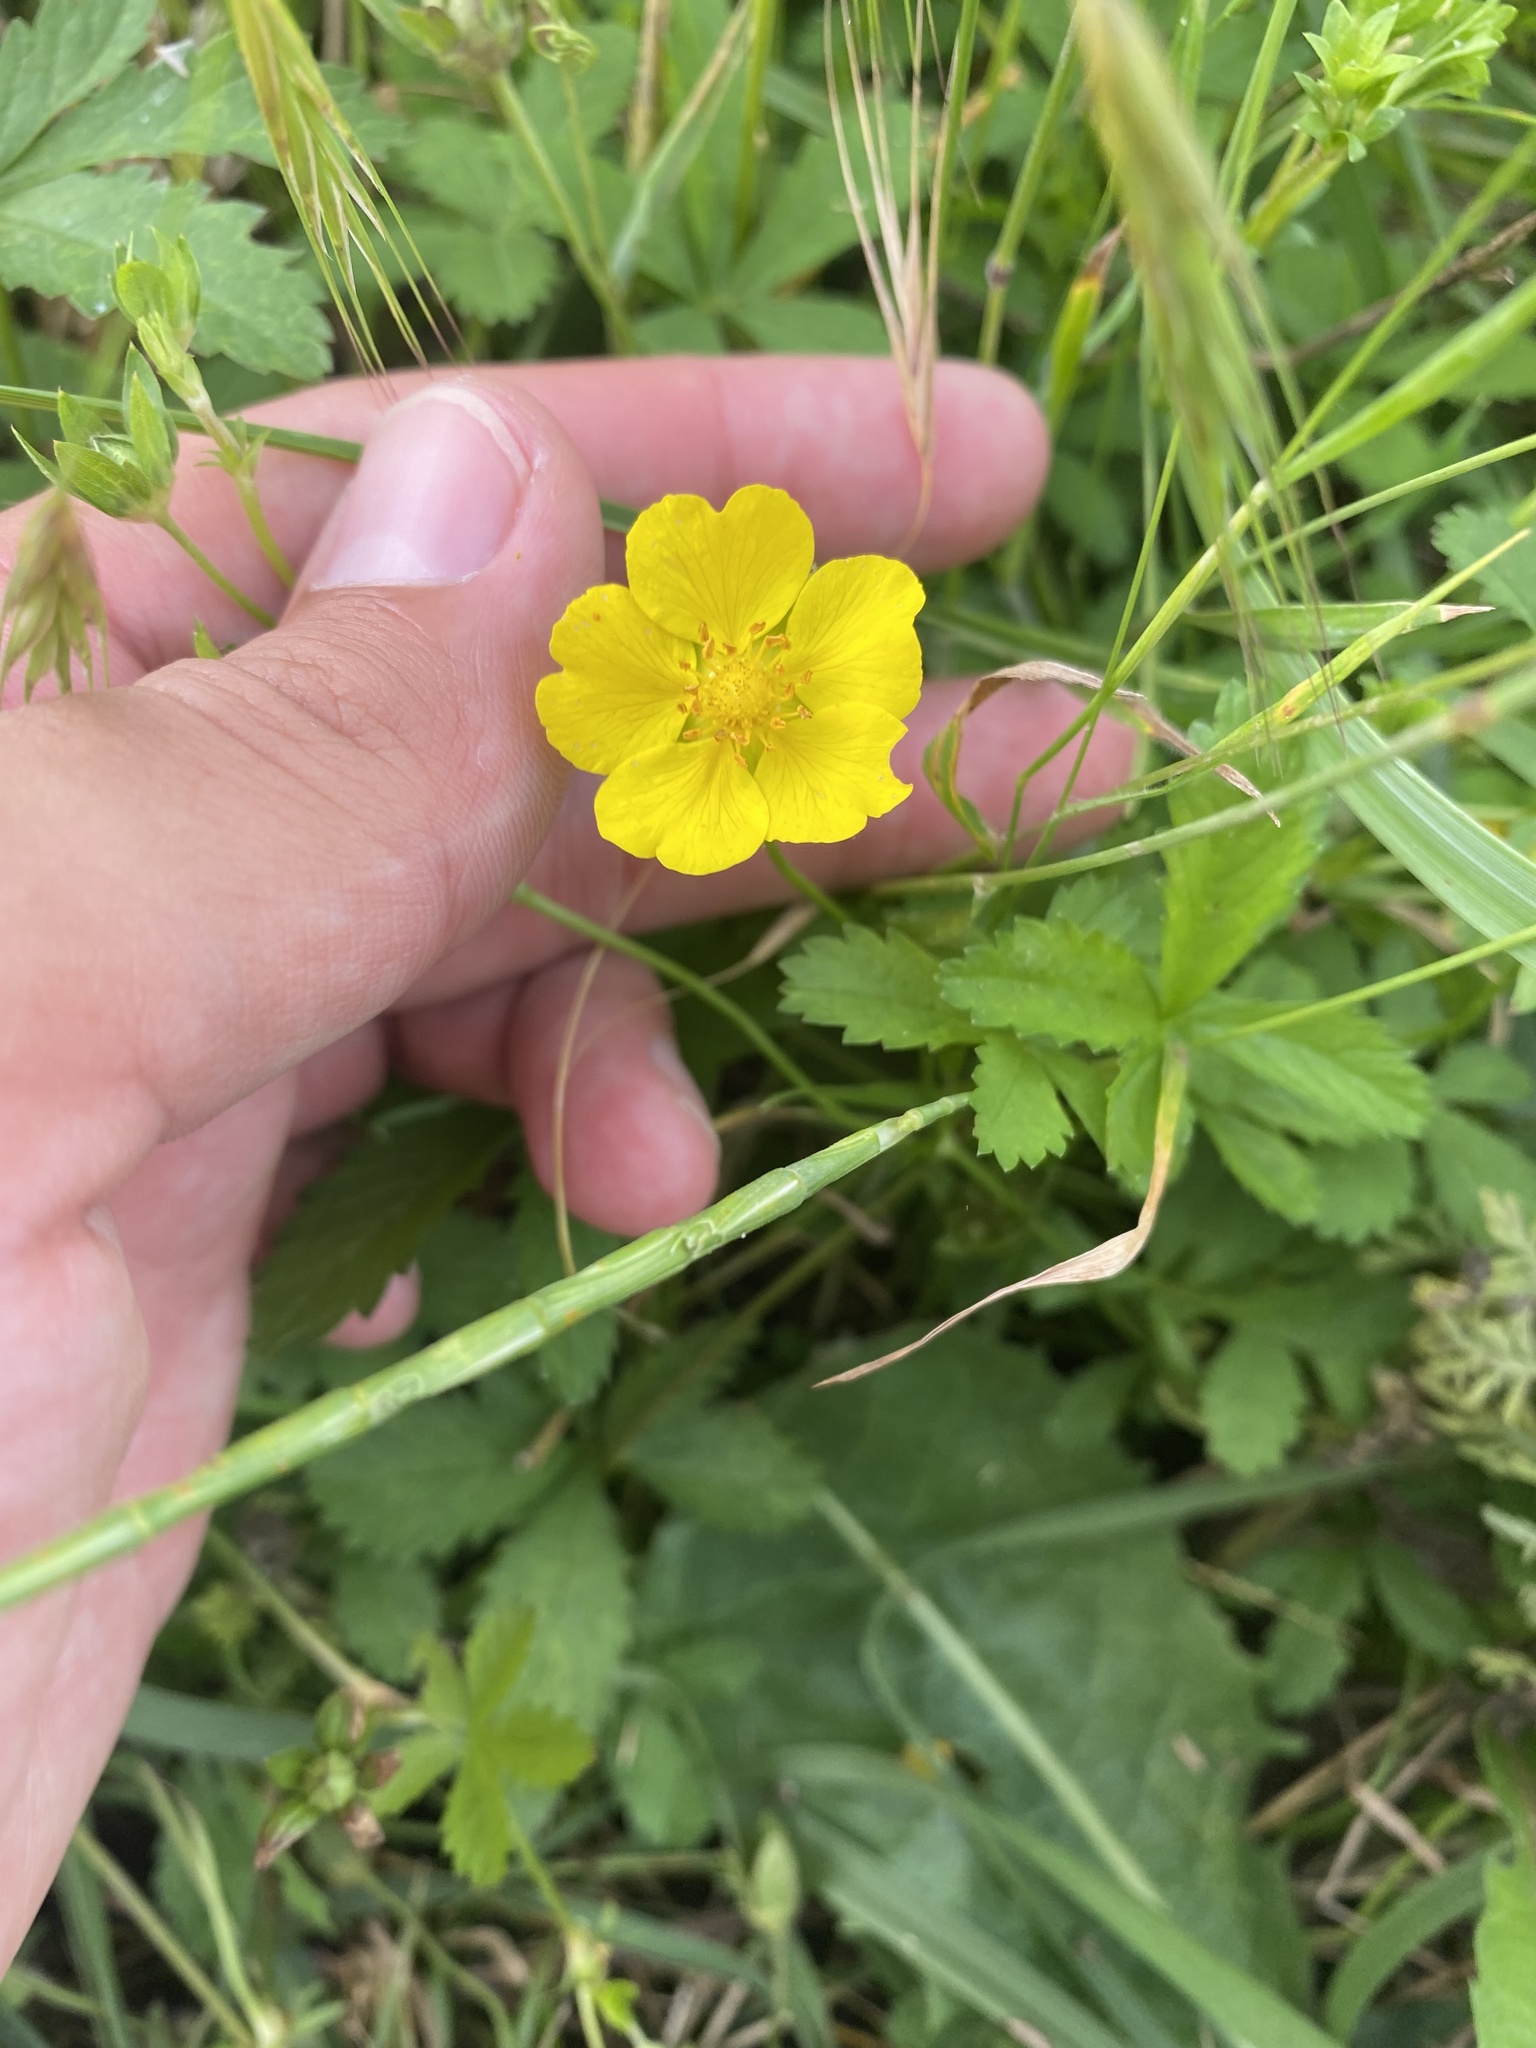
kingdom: Plantae
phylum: Tracheophyta
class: Magnoliopsida
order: Rosales
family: Rosaceae
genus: Potentilla
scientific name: Potentilla reptans
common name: Creeping cinquefoil
